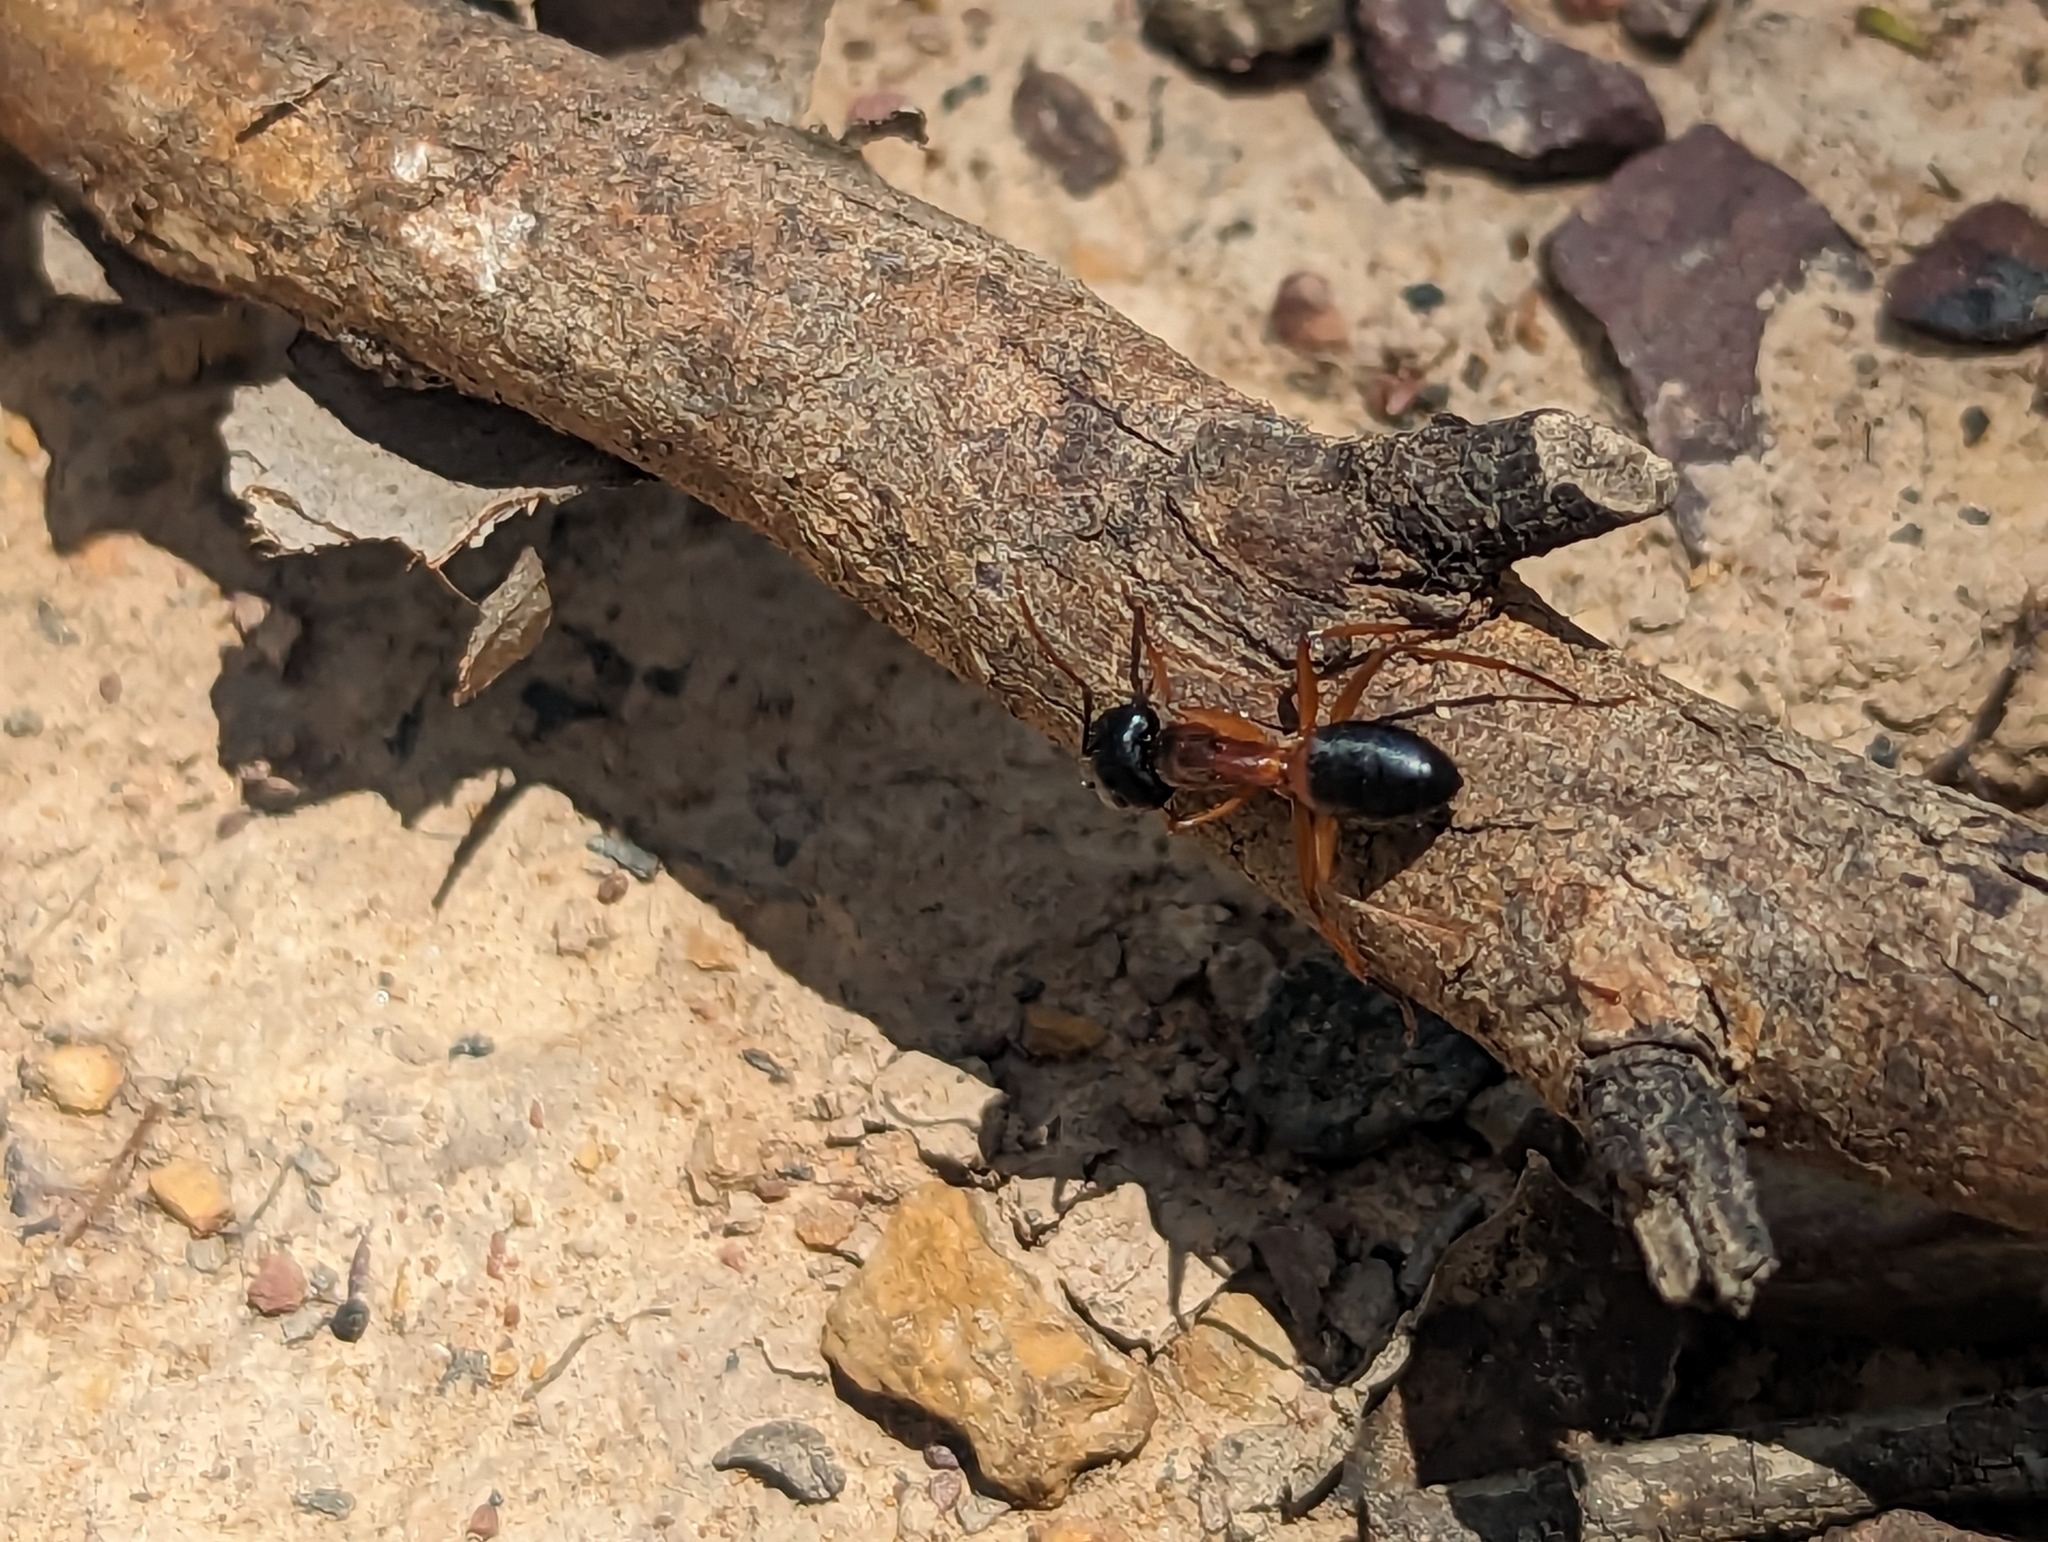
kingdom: Animalia
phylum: Arthropoda
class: Insecta
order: Hymenoptera
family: Formicidae
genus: Camponotus
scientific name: Camponotus consobrinus
